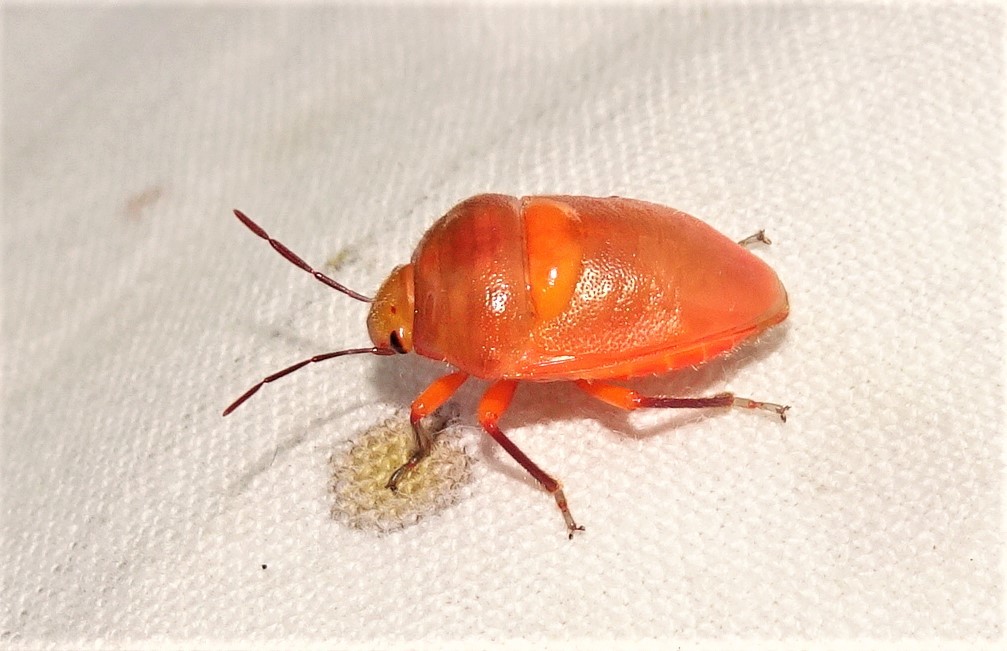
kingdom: Animalia
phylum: Arthropoda
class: Insecta
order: Hemiptera
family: Scutelleridae
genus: Lampromicra
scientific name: Lampromicra senator
